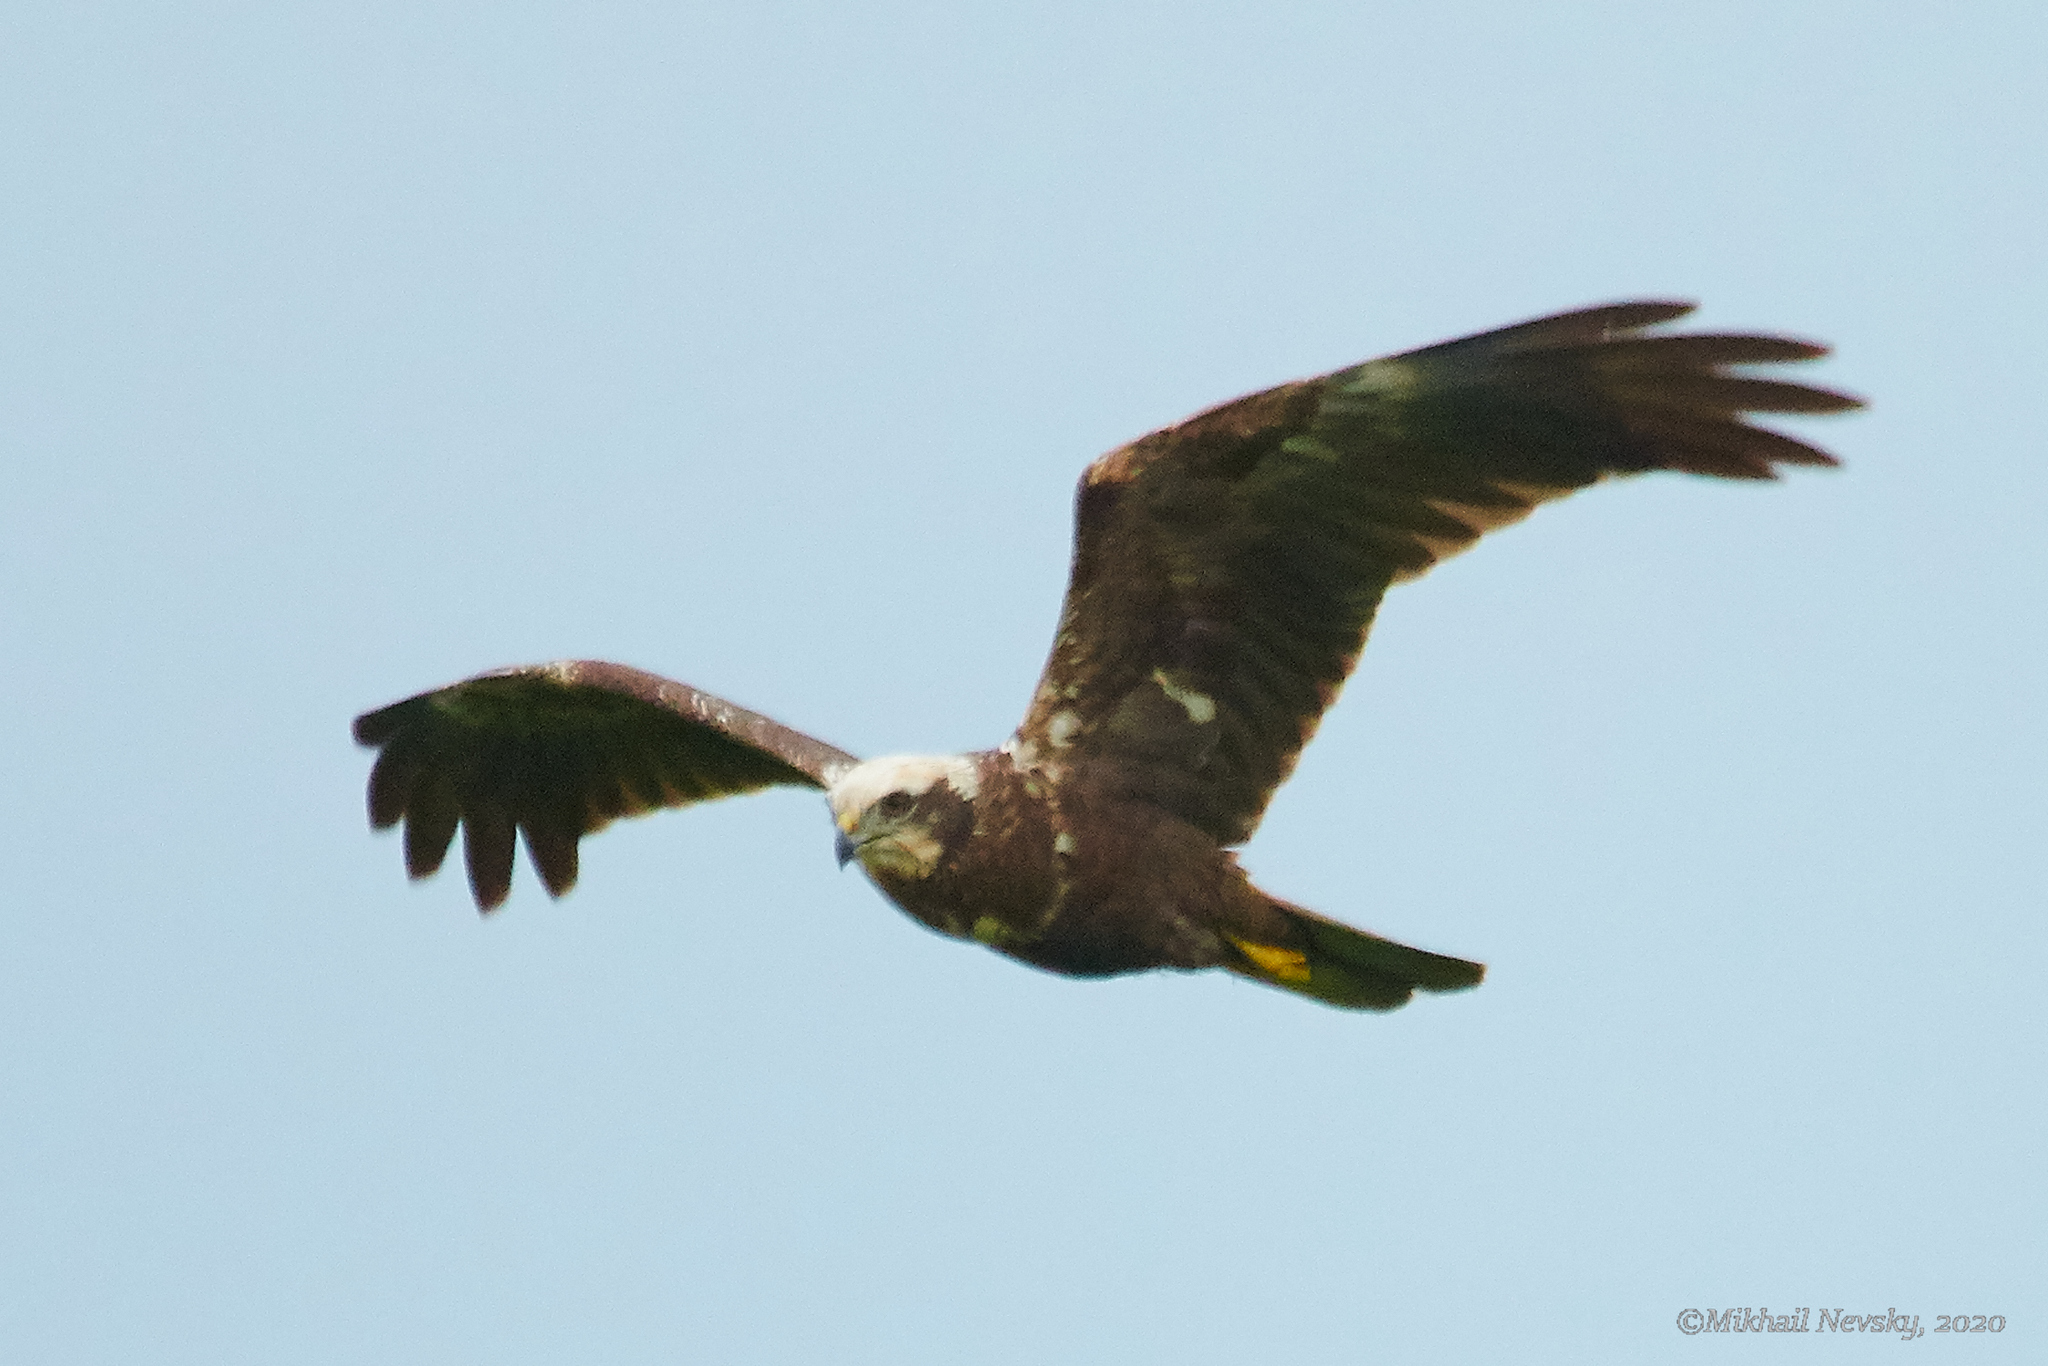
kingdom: Animalia
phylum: Chordata
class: Aves
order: Accipitriformes
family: Accipitridae
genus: Circus
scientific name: Circus aeruginosus
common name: Western marsh harrier
